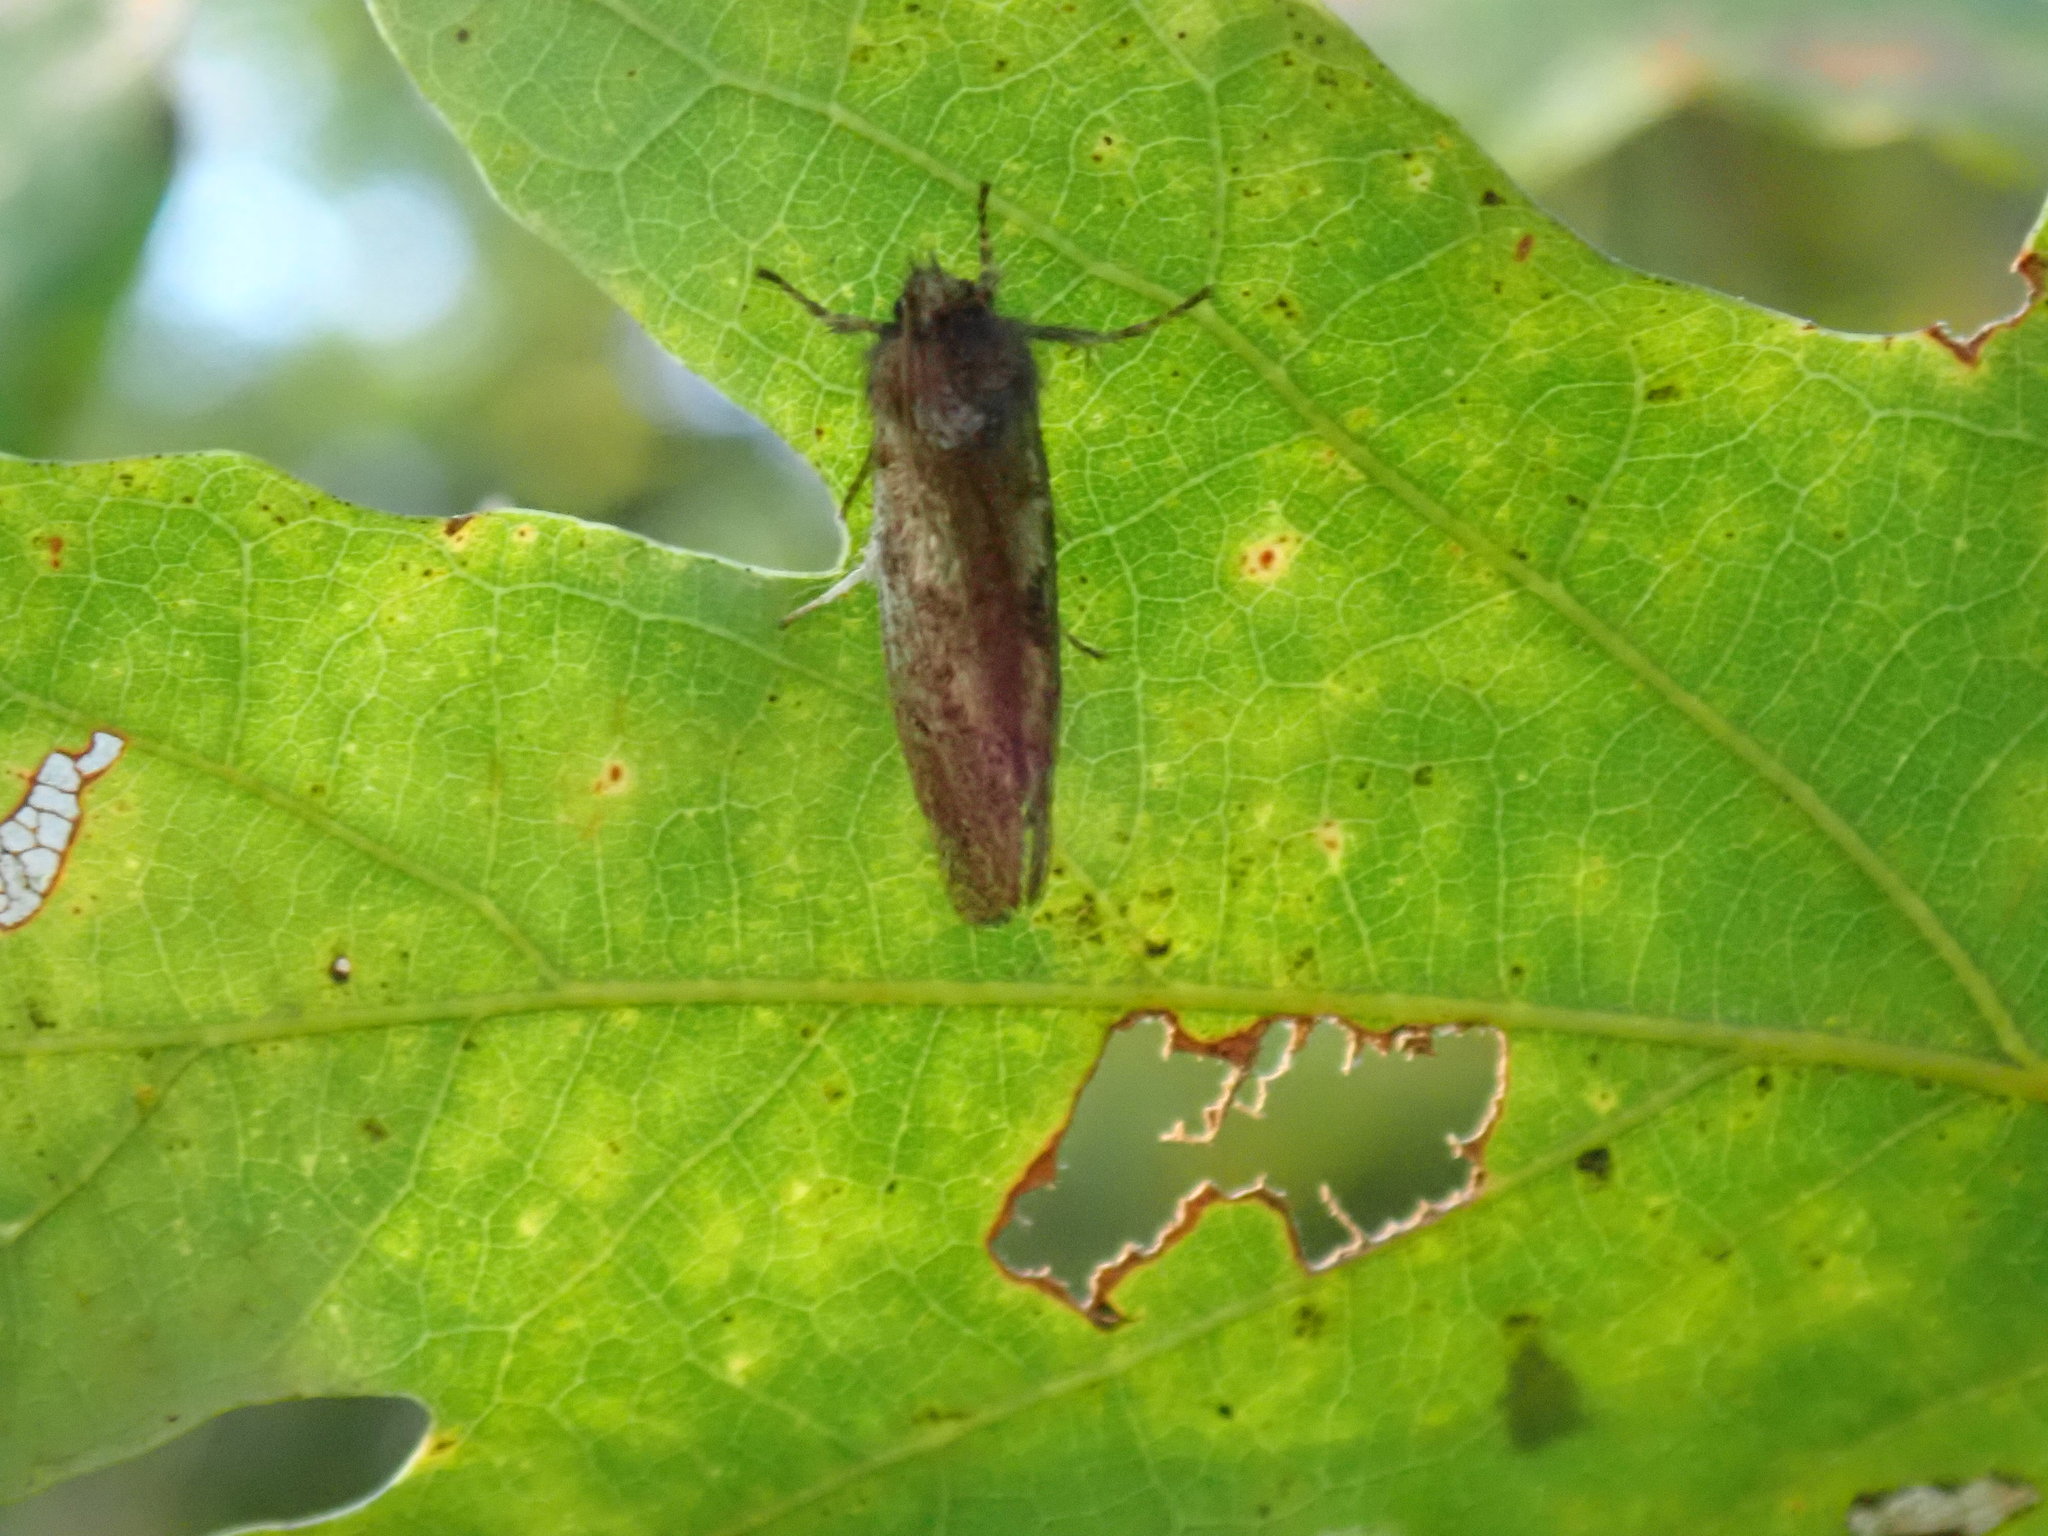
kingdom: Animalia
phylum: Arthropoda
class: Insecta
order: Lepidoptera
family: Tineidae
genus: Acrolophus
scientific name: Acrolophus mora
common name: Dark acrolophus
